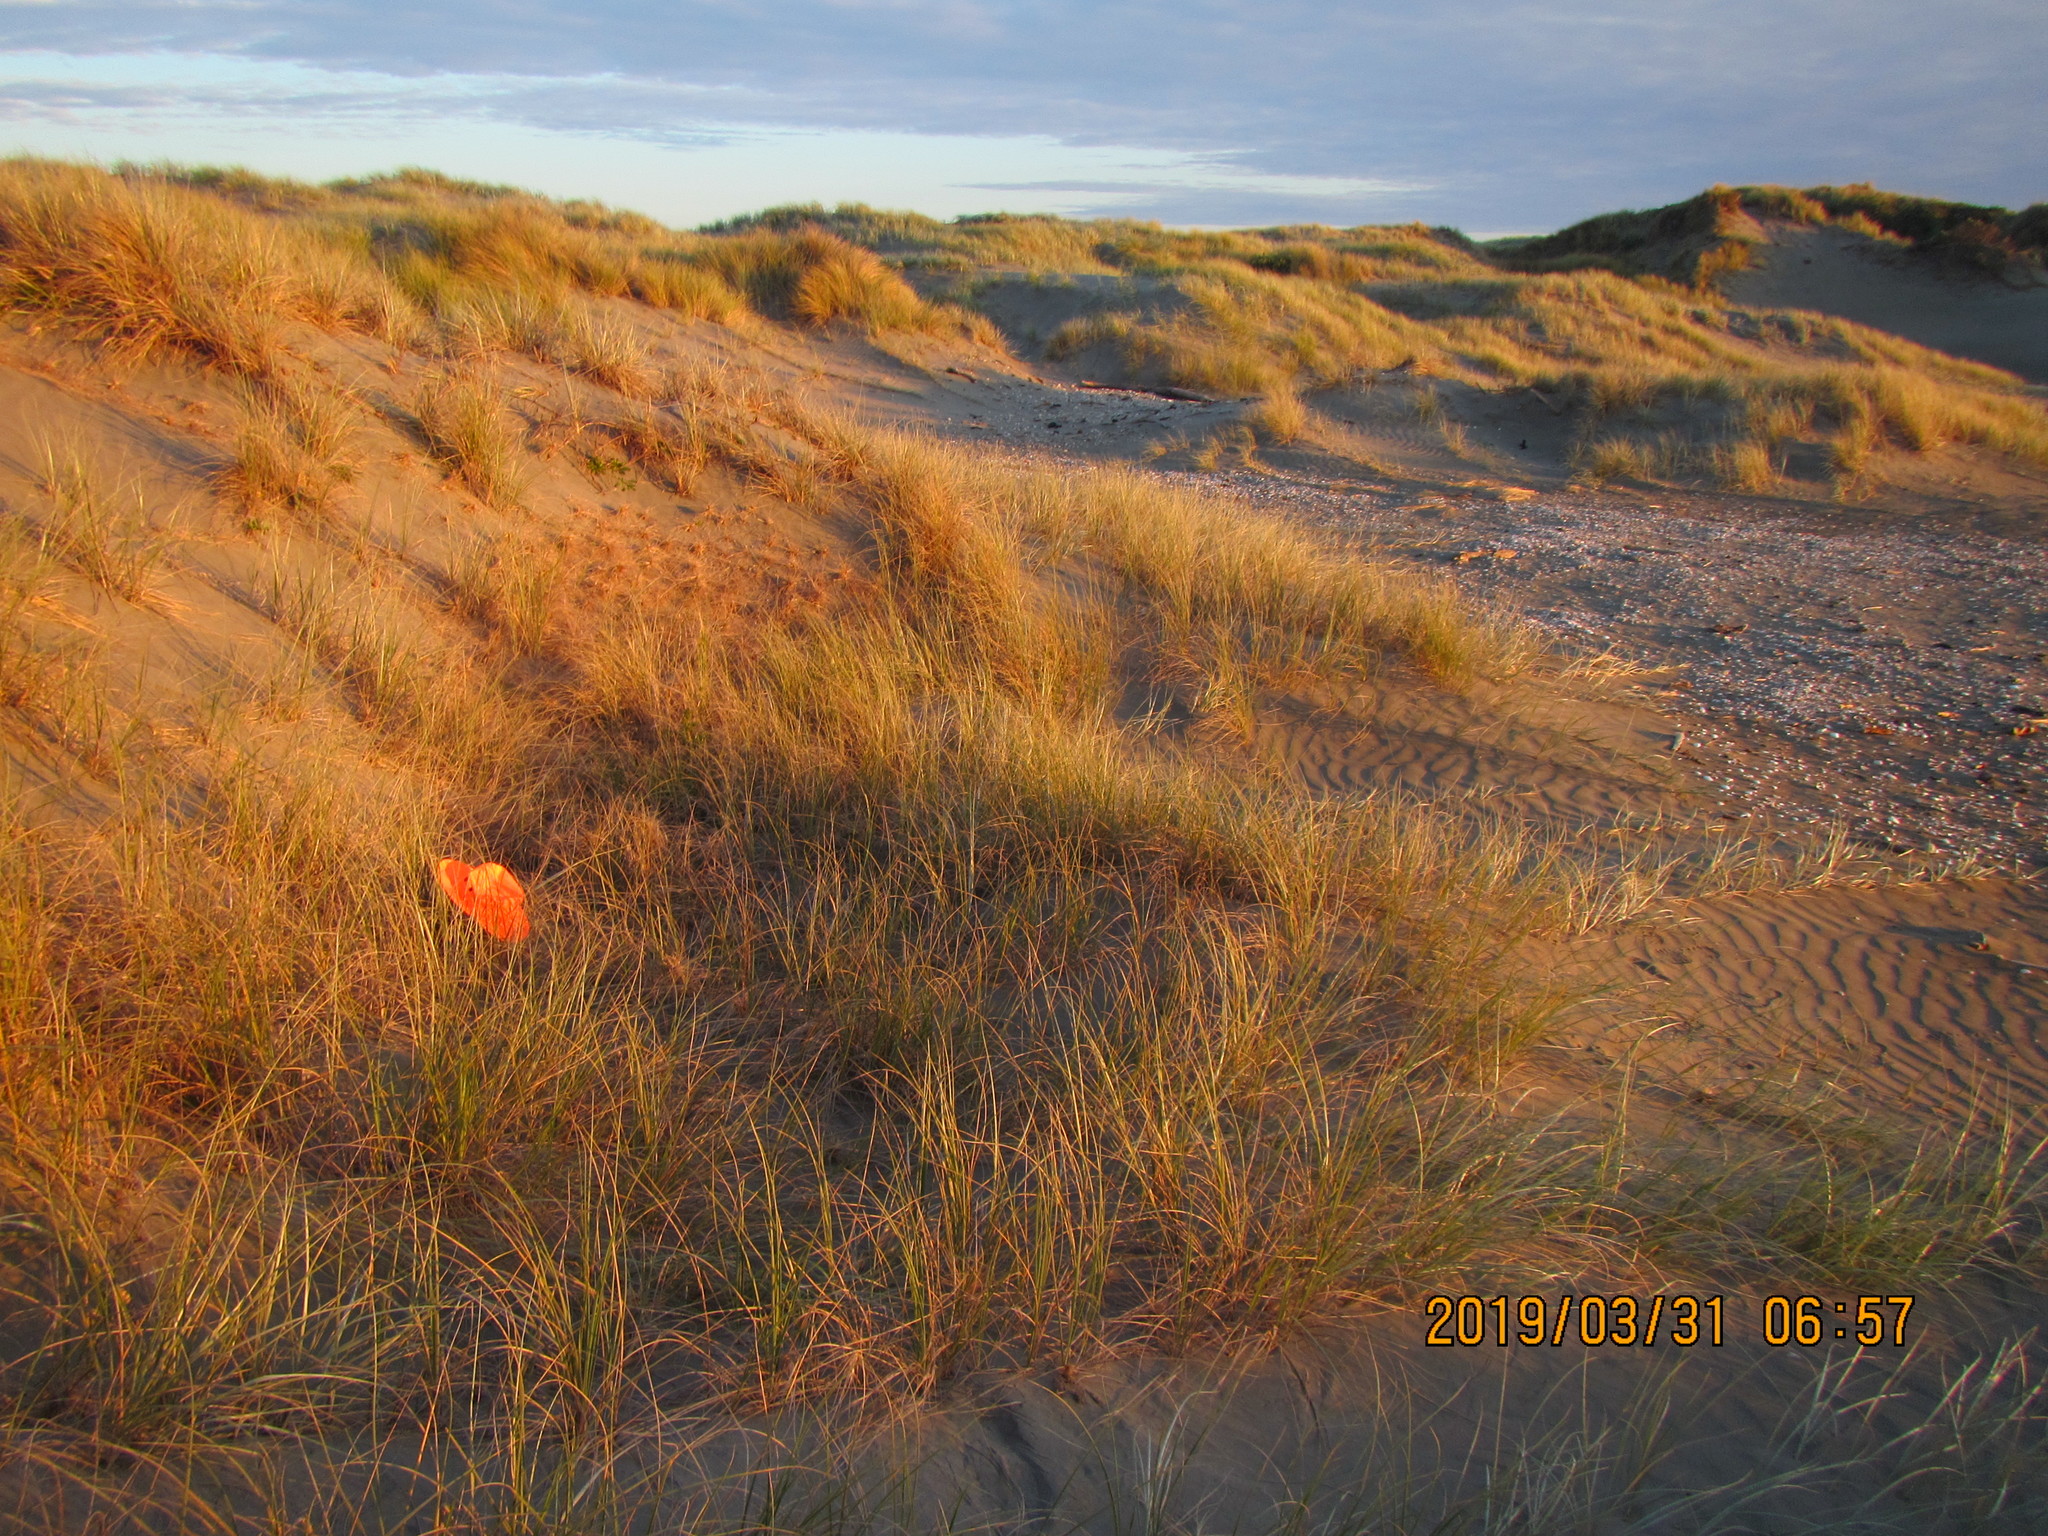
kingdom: Animalia
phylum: Arthropoda
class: Arachnida
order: Araneae
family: Theridiidae
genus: Latrodectus
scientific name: Latrodectus katipo
